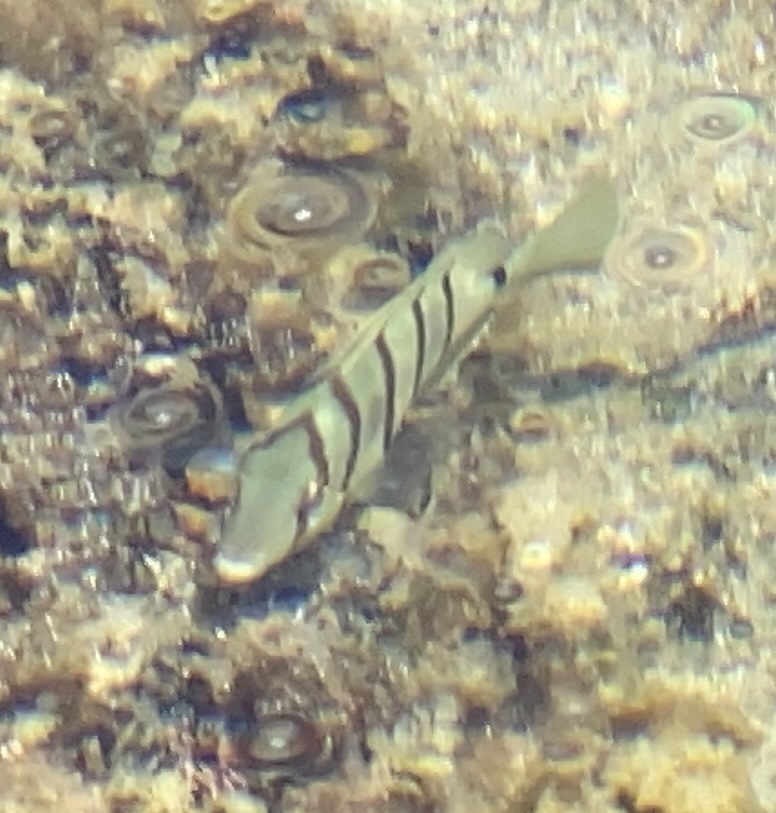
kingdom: Animalia
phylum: Chordata
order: Perciformes
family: Acanthuridae
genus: Acanthurus
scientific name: Acanthurus triostegus
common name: Convict surgeonfish
